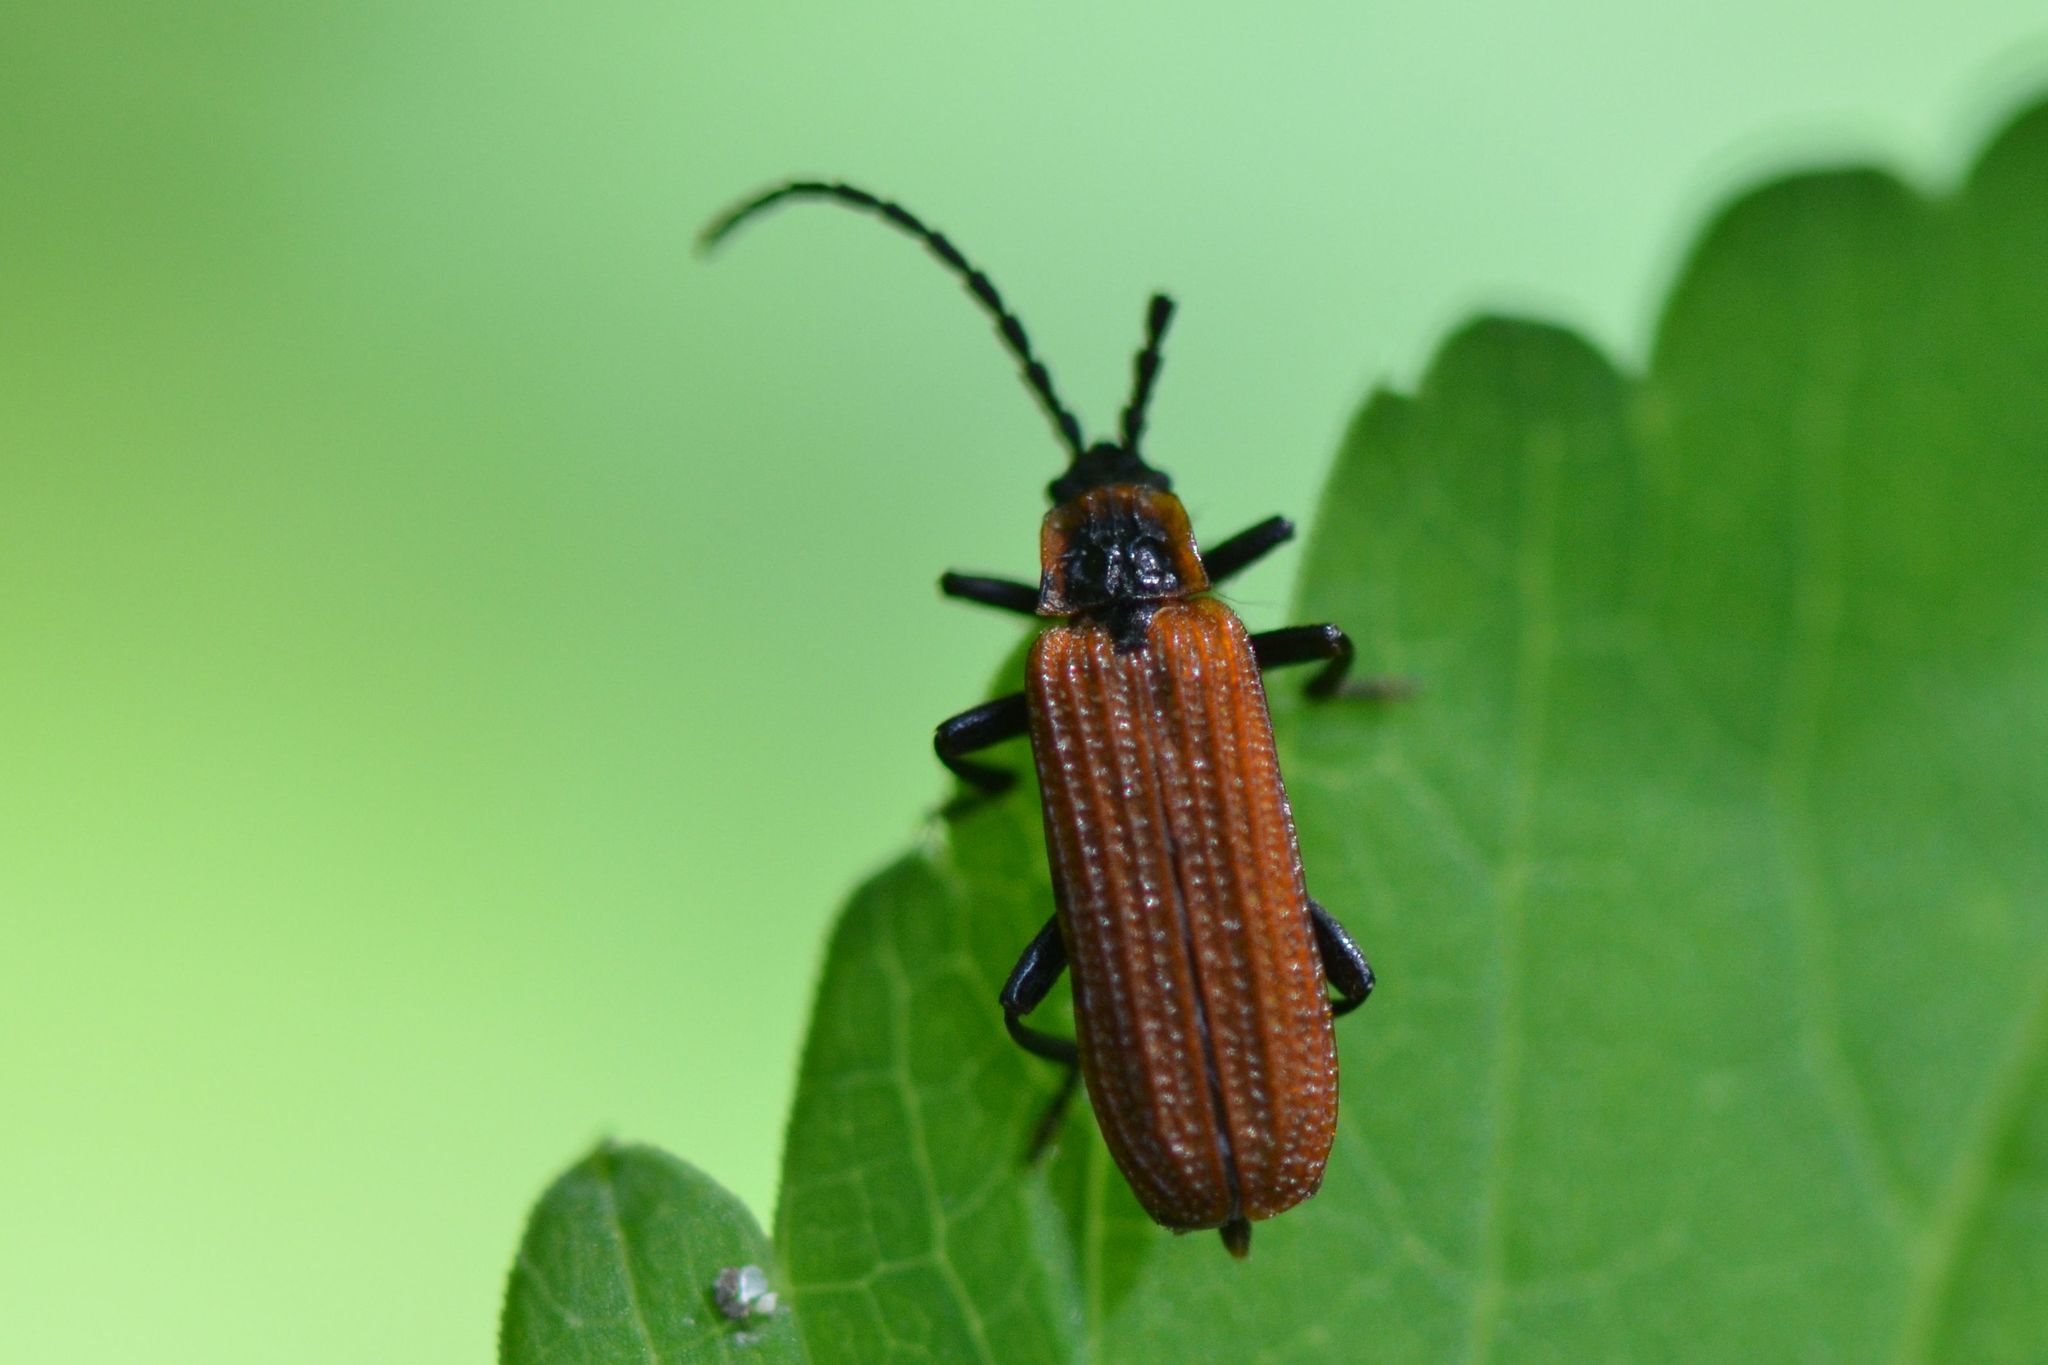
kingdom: Animalia
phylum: Arthropoda
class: Insecta
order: Coleoptera
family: Lycidae
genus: Erotides
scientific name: Erotides cosnardi
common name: Cosnard's net-winged beetle
